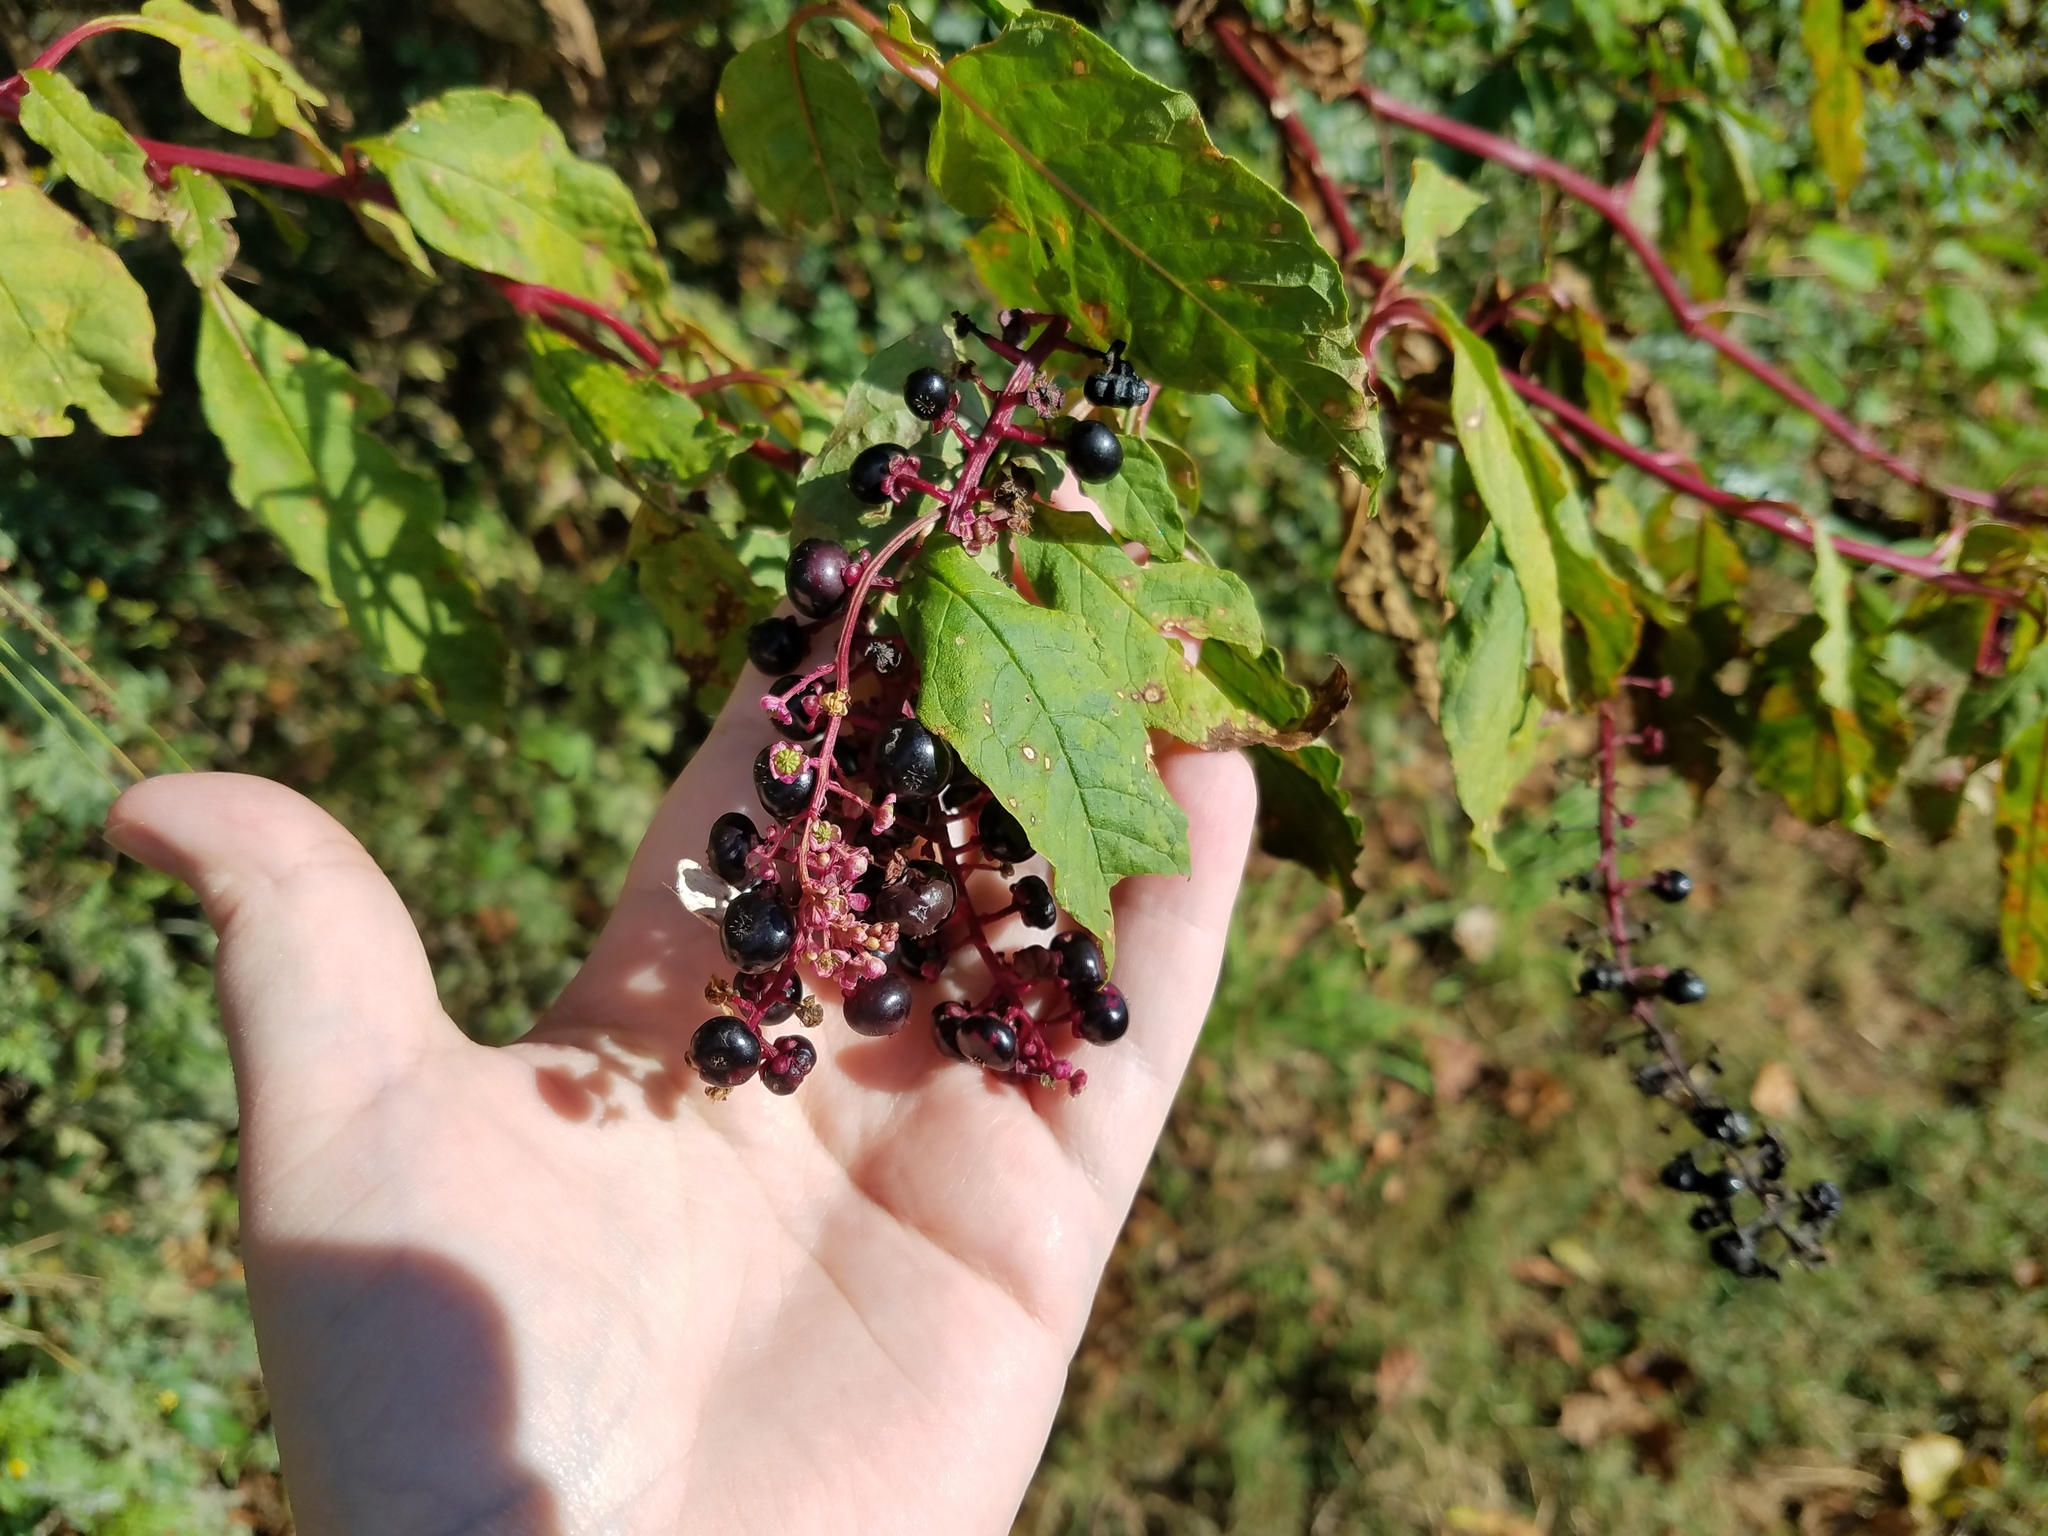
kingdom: Plantae
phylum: Tracheophyta
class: Magnoliopsida
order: Caryophyllales
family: Phytolaccaceae
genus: Phytolacca
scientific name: Phytolacca americana
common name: American pokeweed
